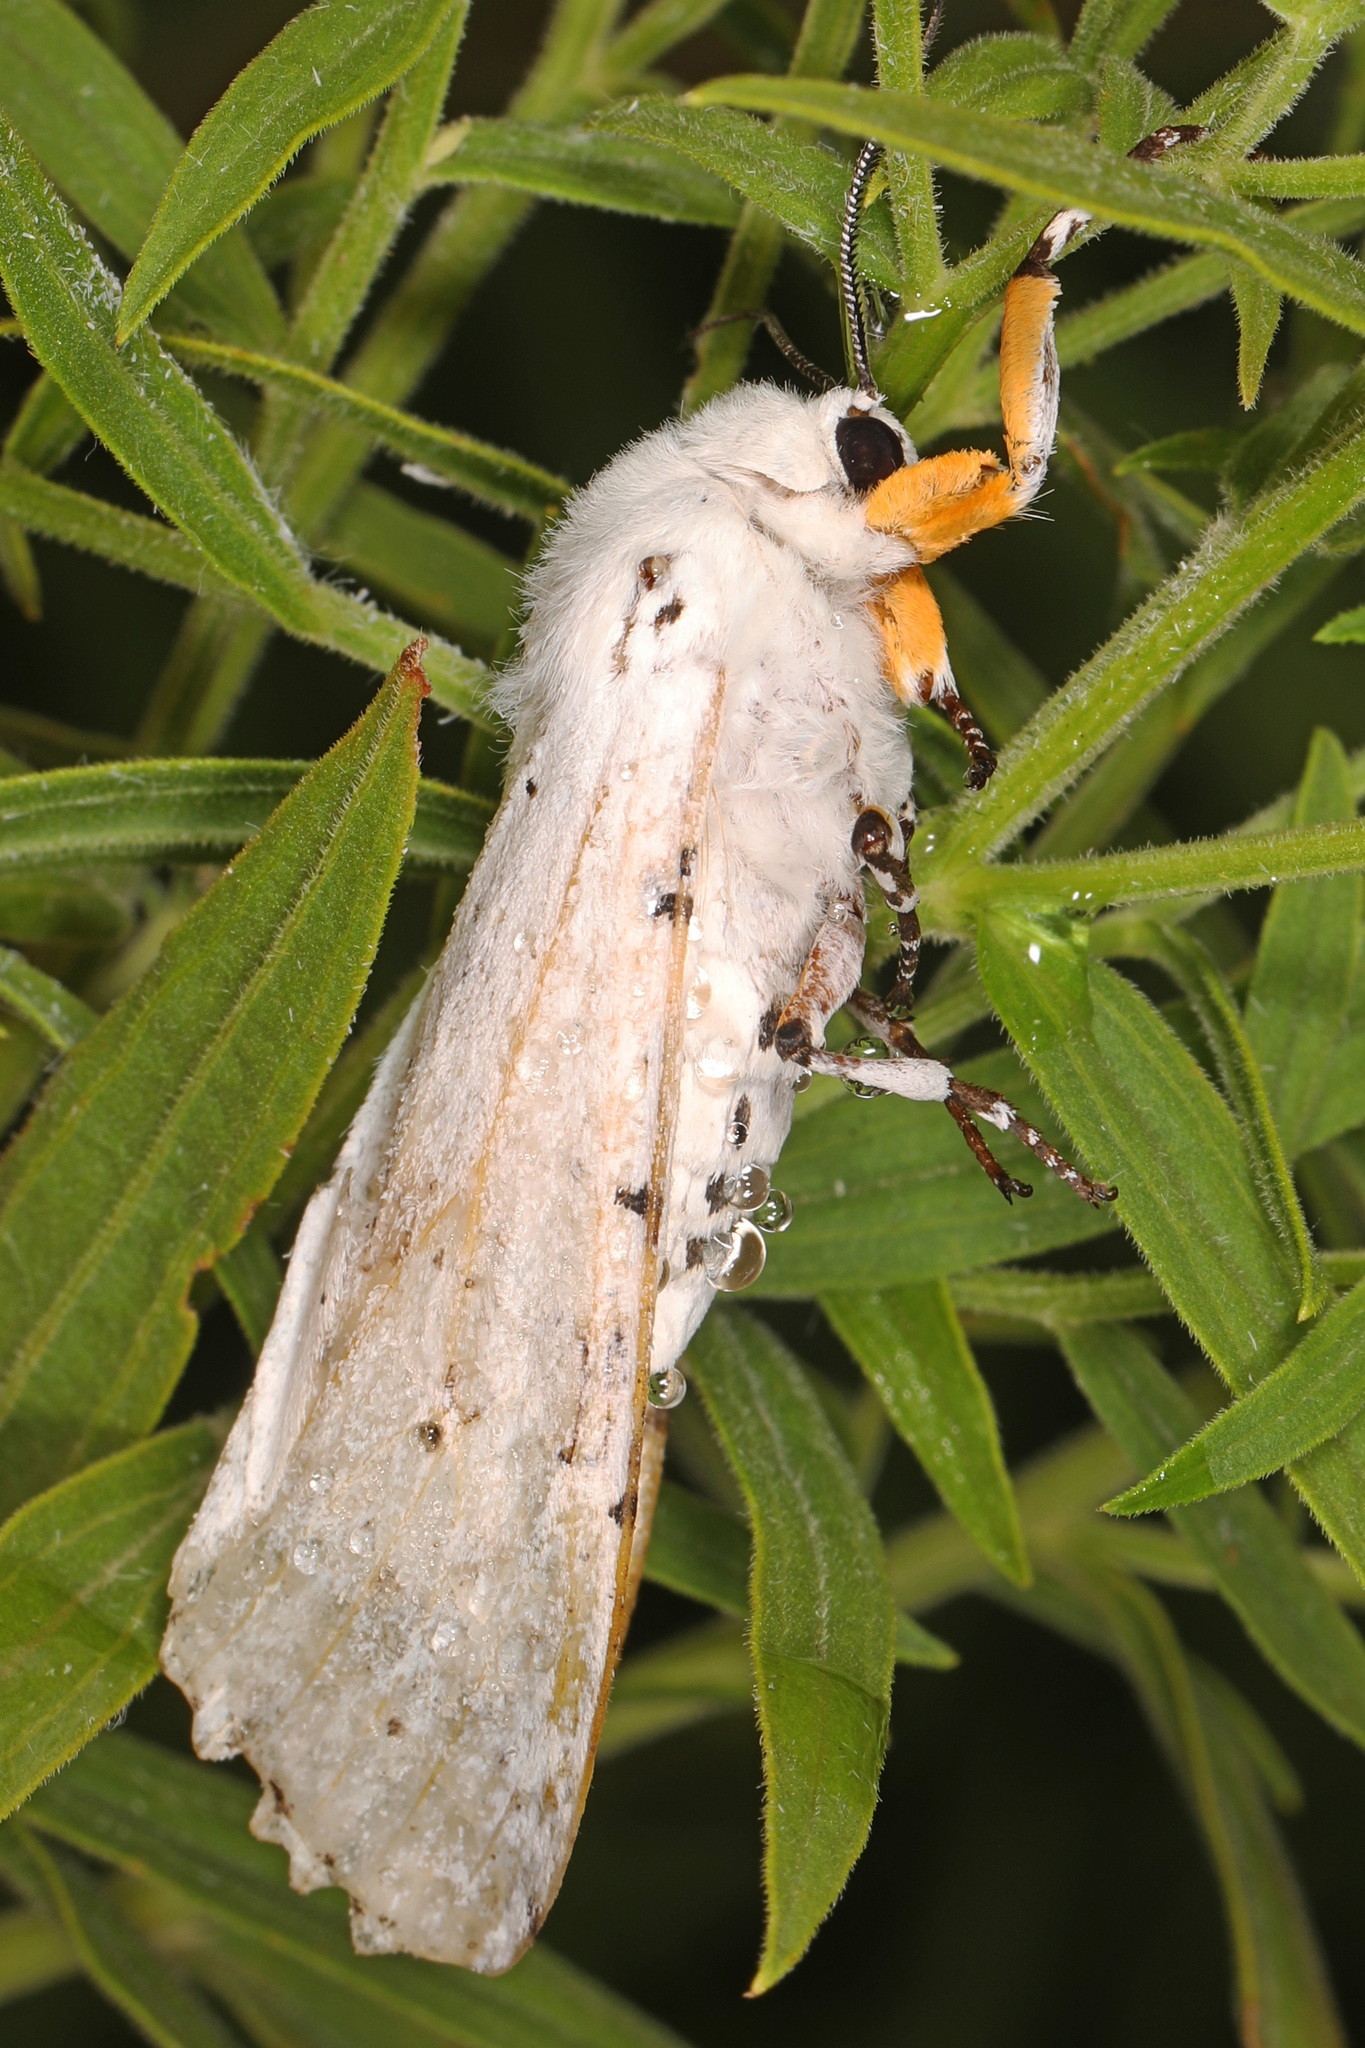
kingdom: Animalia
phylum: Arthropoda
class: Insecta
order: Lepidoptera
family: Erebidae
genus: Estigmene
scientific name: Estigmene acrea
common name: Salt marsh moth
